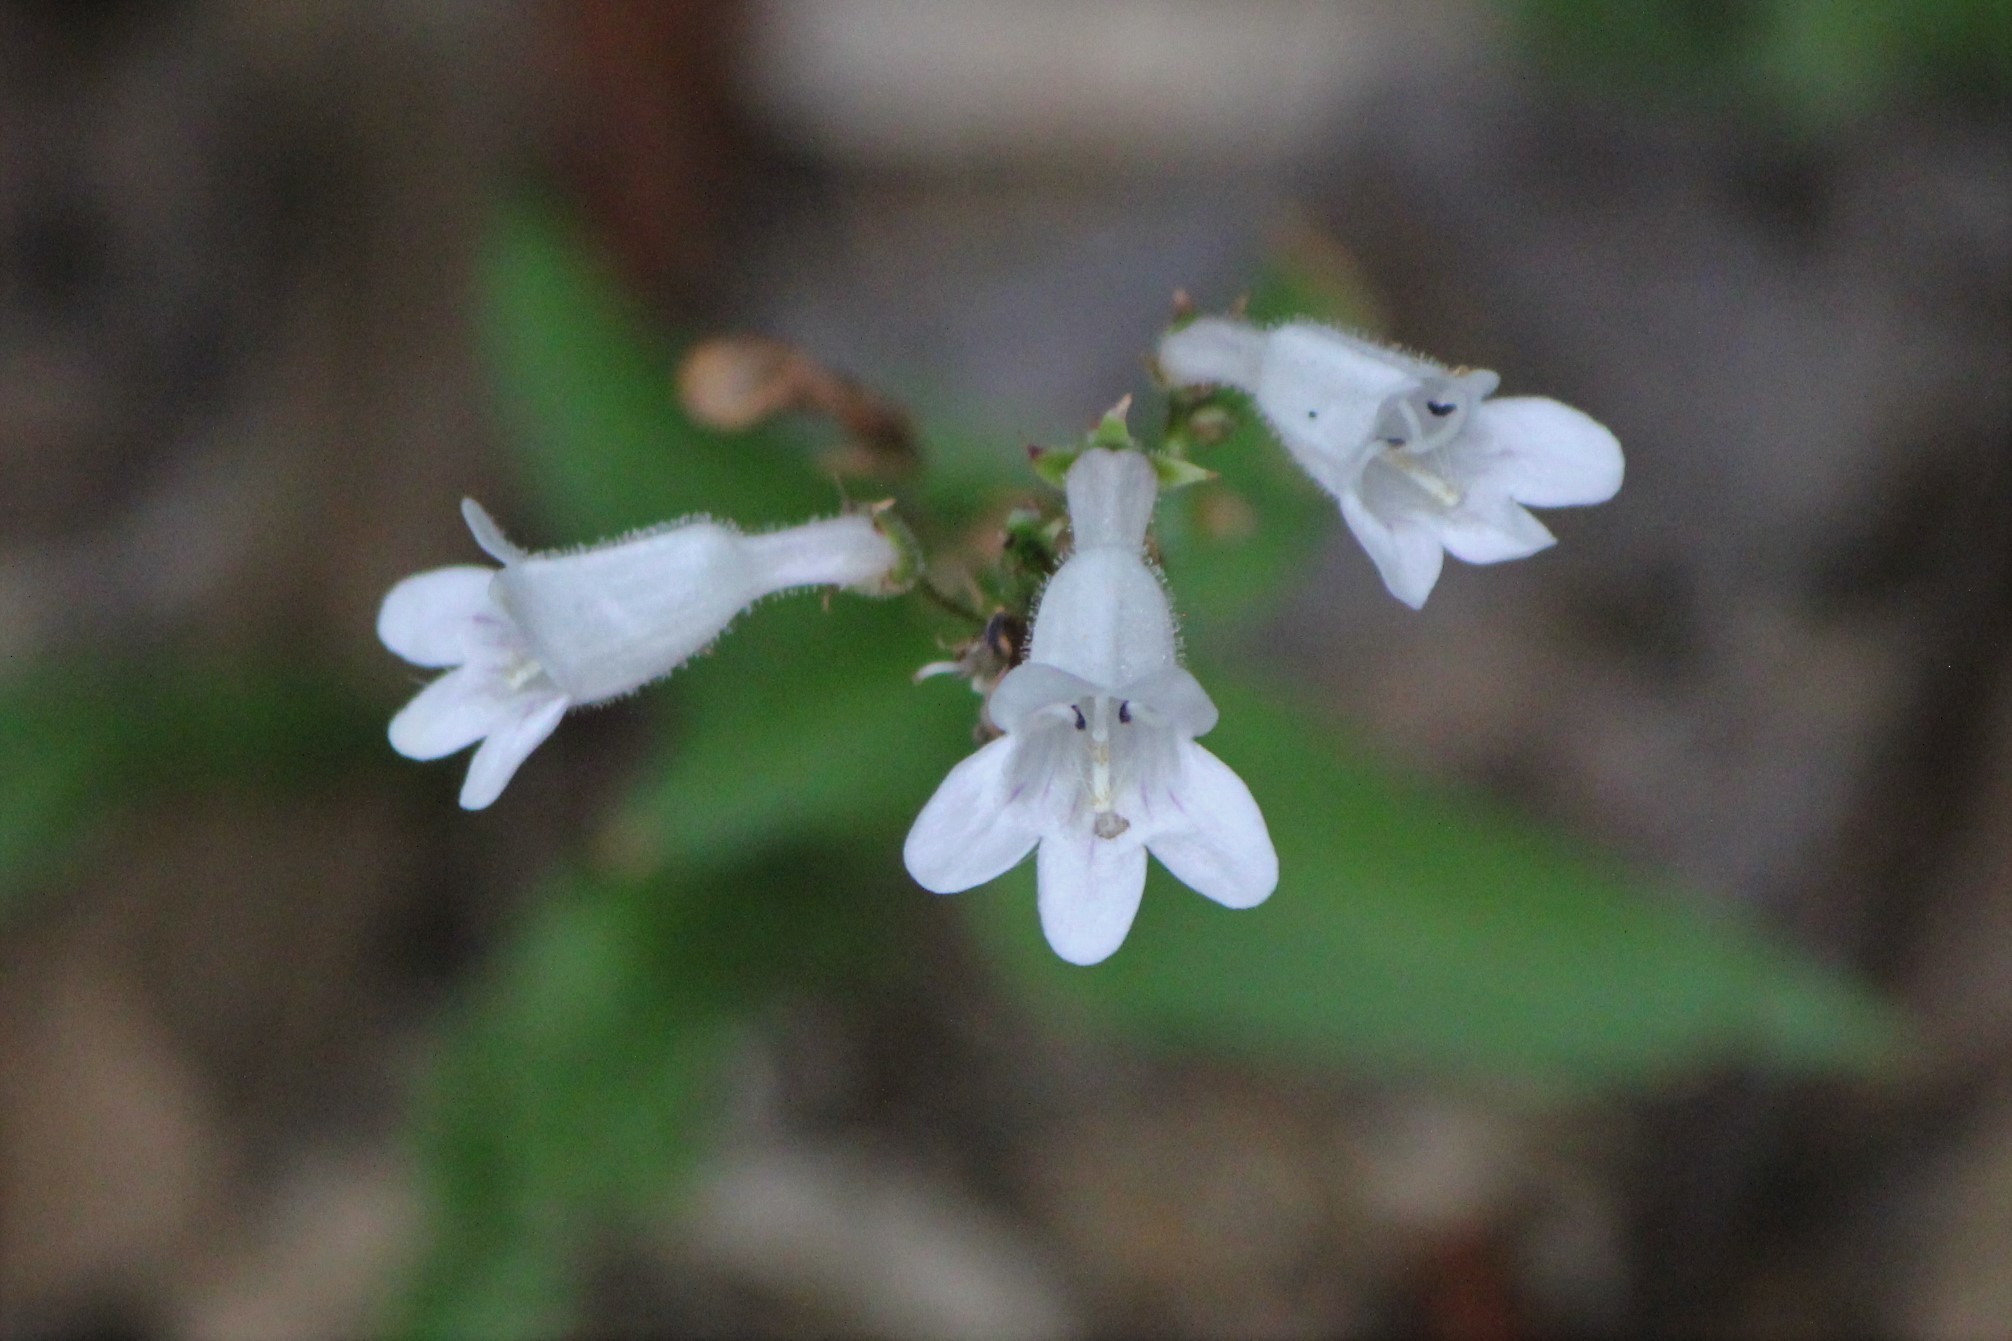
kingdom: Plantae
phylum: Tracheophyta
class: Magnoliopsida
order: Lamiales
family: Plantaginaceae
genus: Penstemon
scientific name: Penstemon digitalis
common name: Foxglove beardtongue
